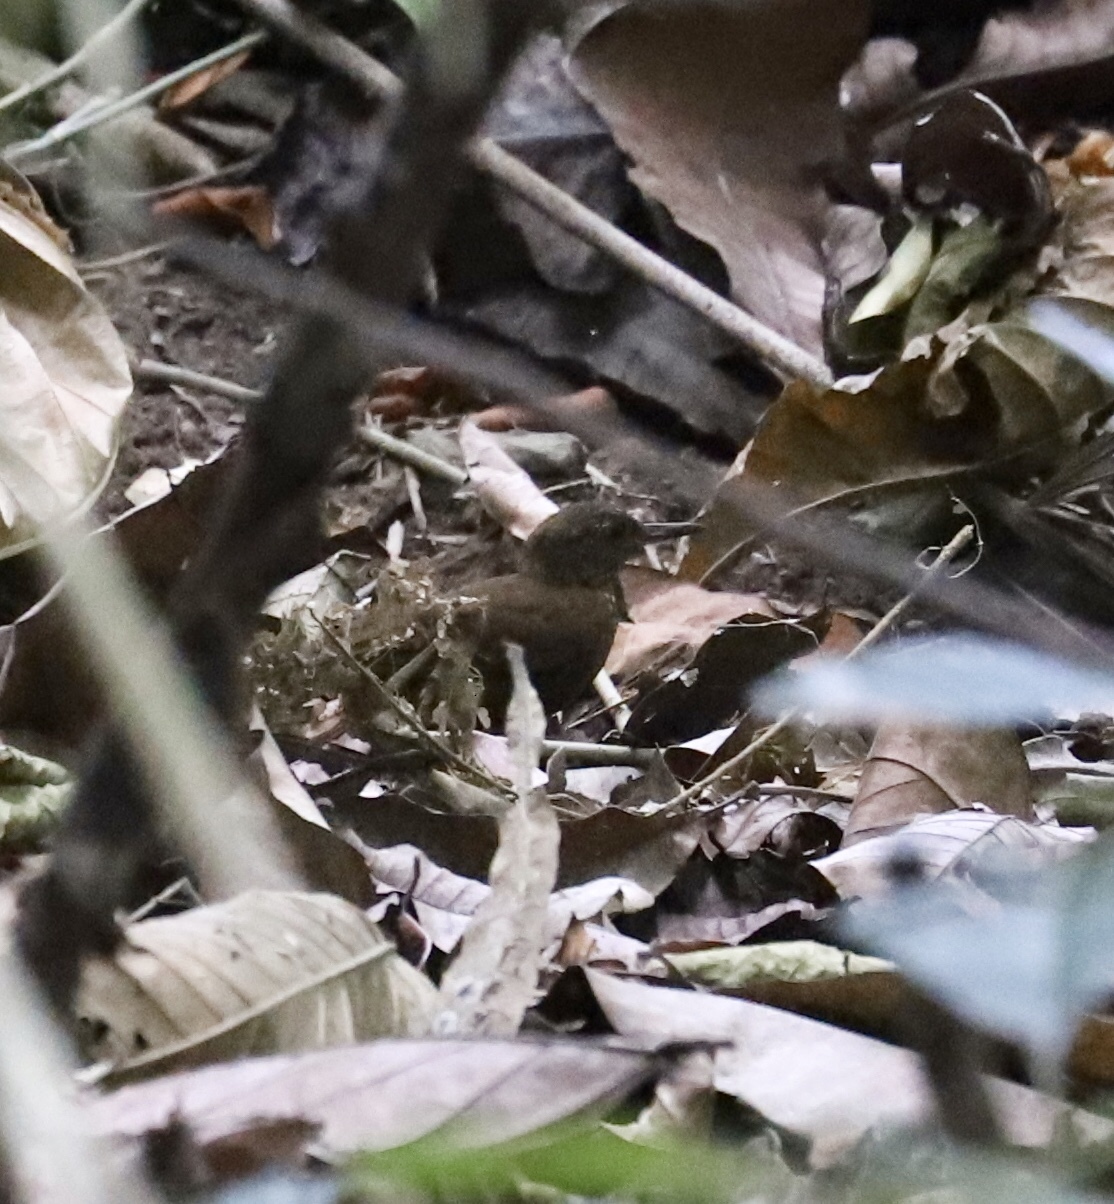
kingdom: Animalia
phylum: Chordata
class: Aves
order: Passeriformes
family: Furnariidae
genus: Sclerurus
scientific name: Sclerurus guatemalensis
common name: Scaly-throated leaftosser
